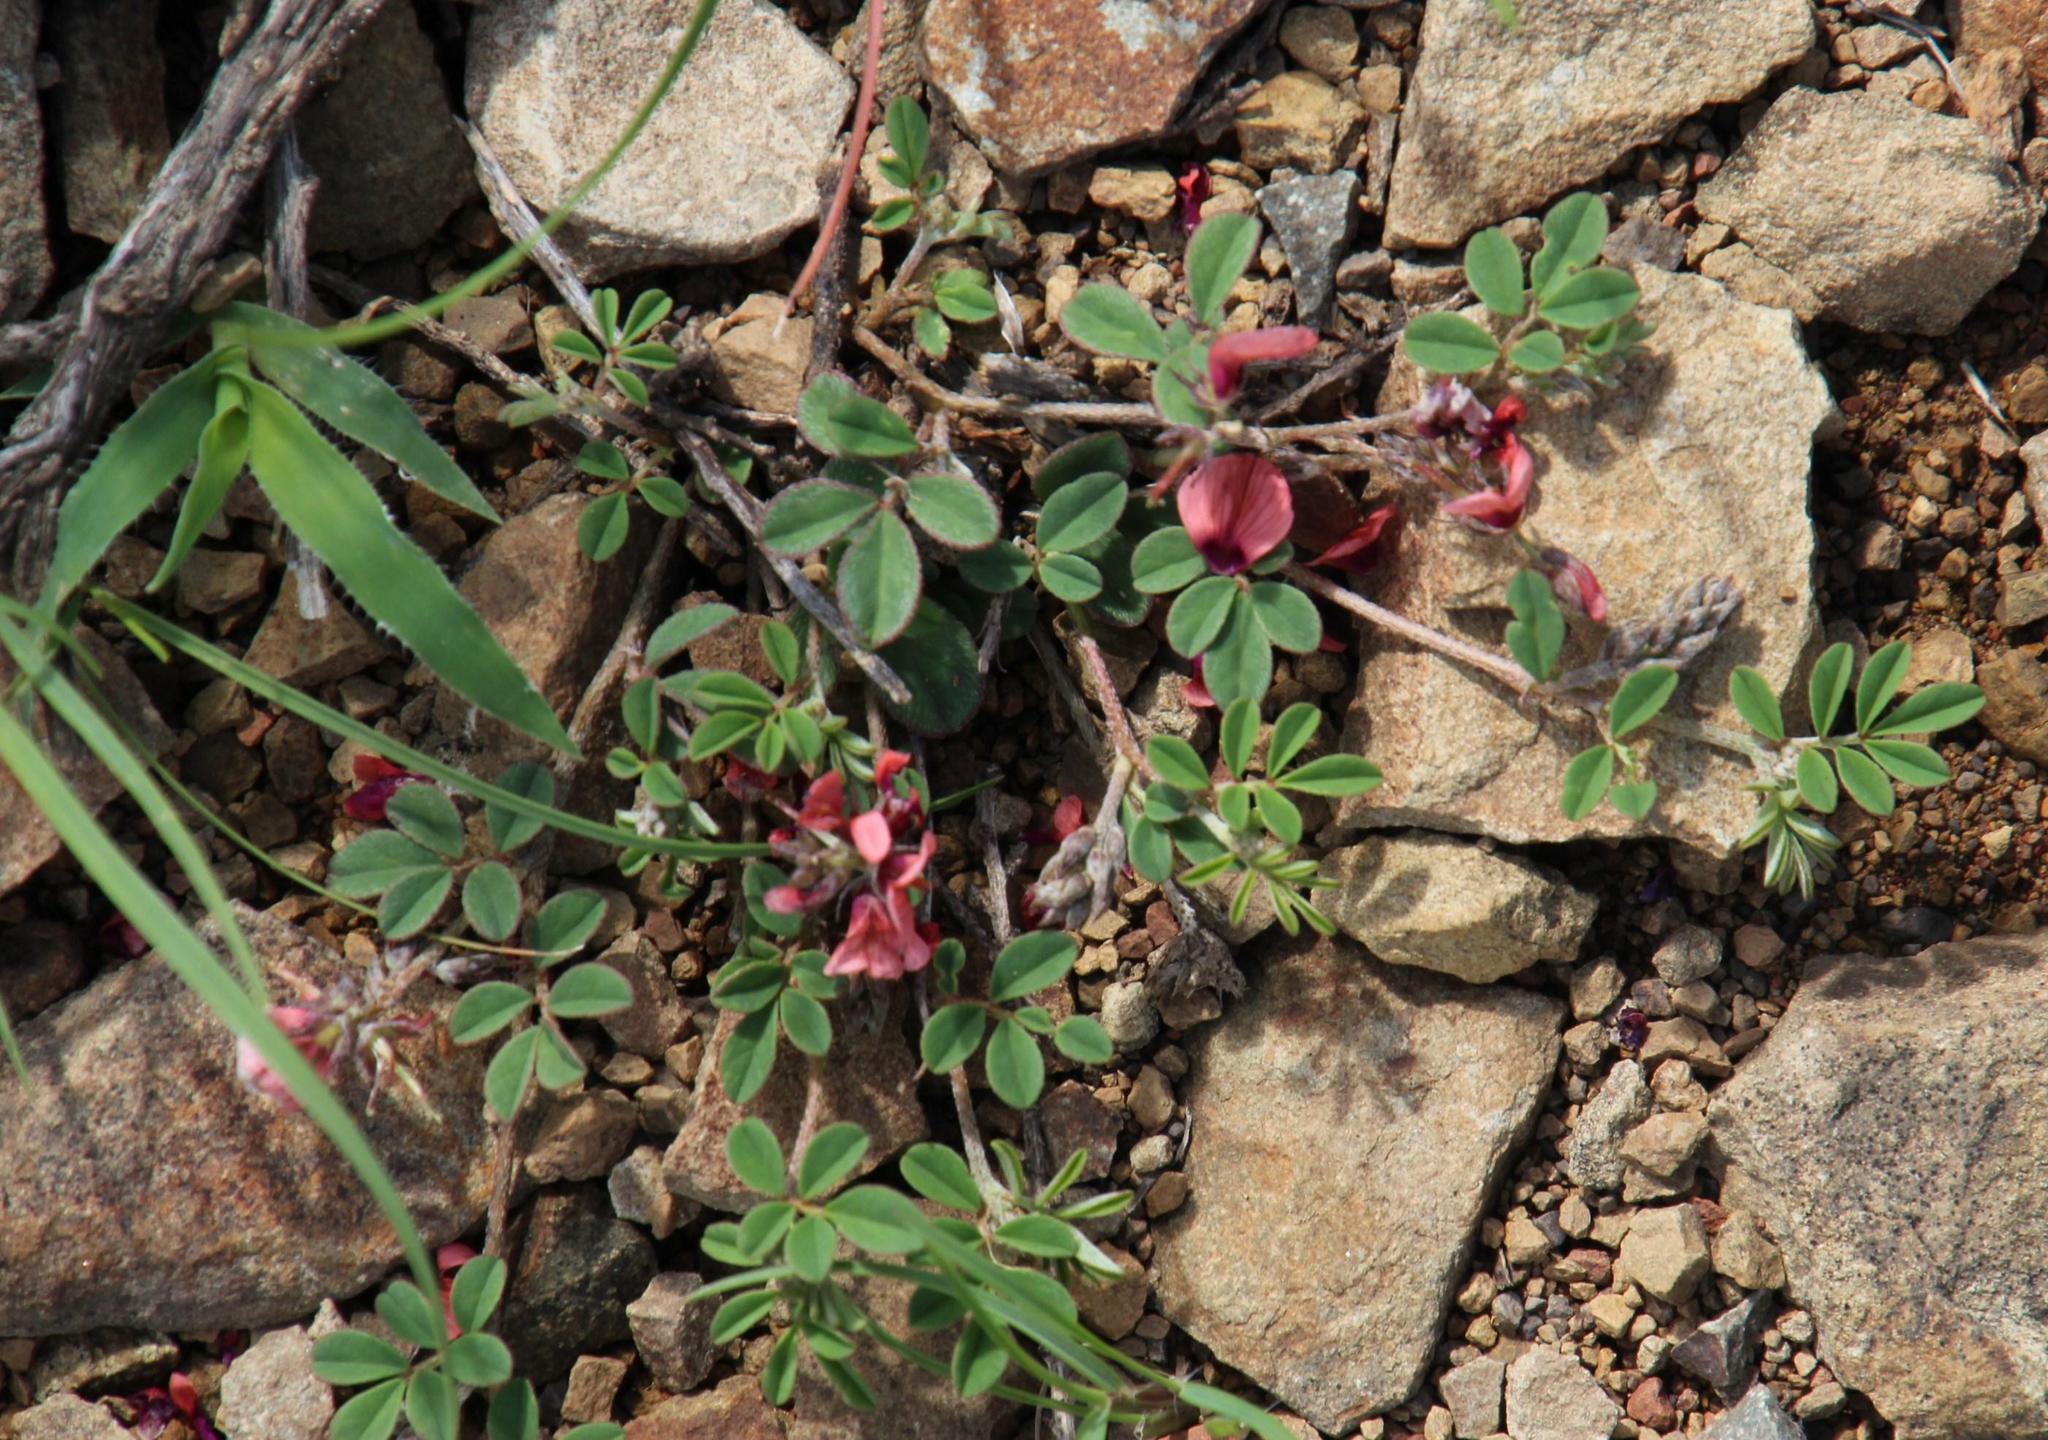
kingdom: Plantae
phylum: Tracheophyta
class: Magnoliopsida
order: Fabales
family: Fabaceae
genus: Indigofera
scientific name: Indigofera alternans
